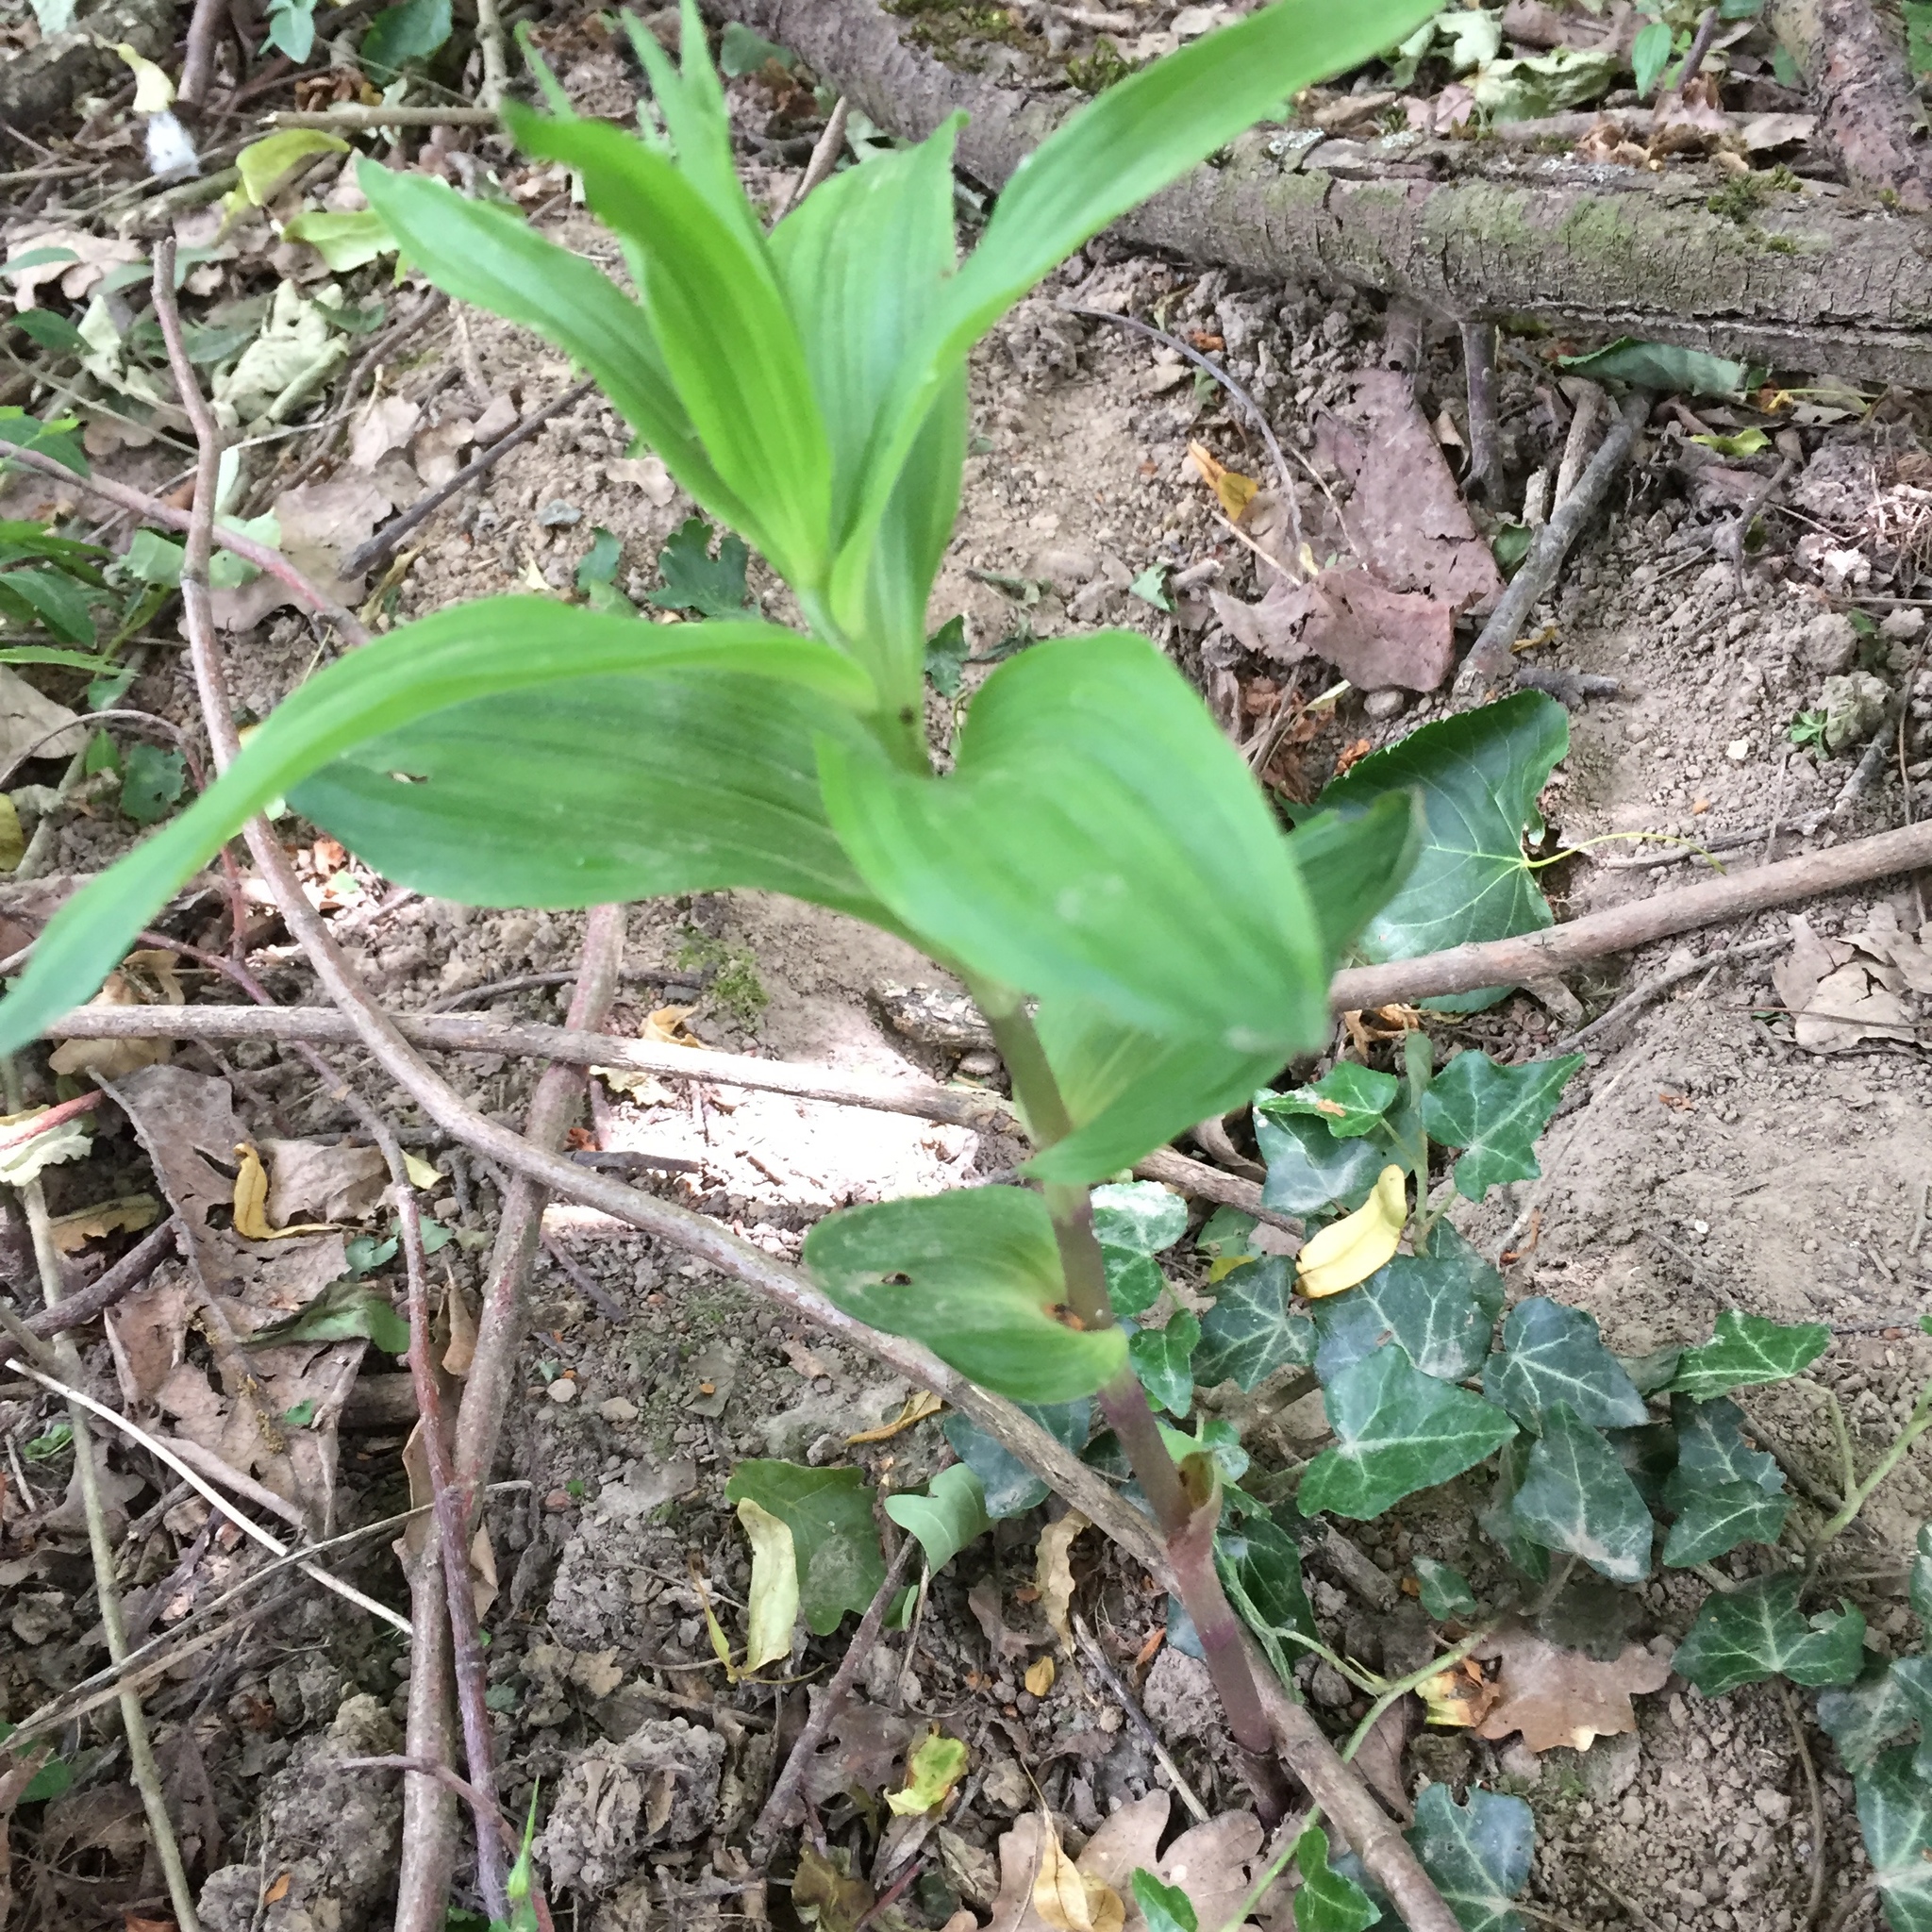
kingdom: Plantae
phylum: Tracheophyta
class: Liliopsida
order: Asparagales
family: Orchidaceae
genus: Epipactis
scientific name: Epipactis helleborine
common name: Broad-leaved helleborine
